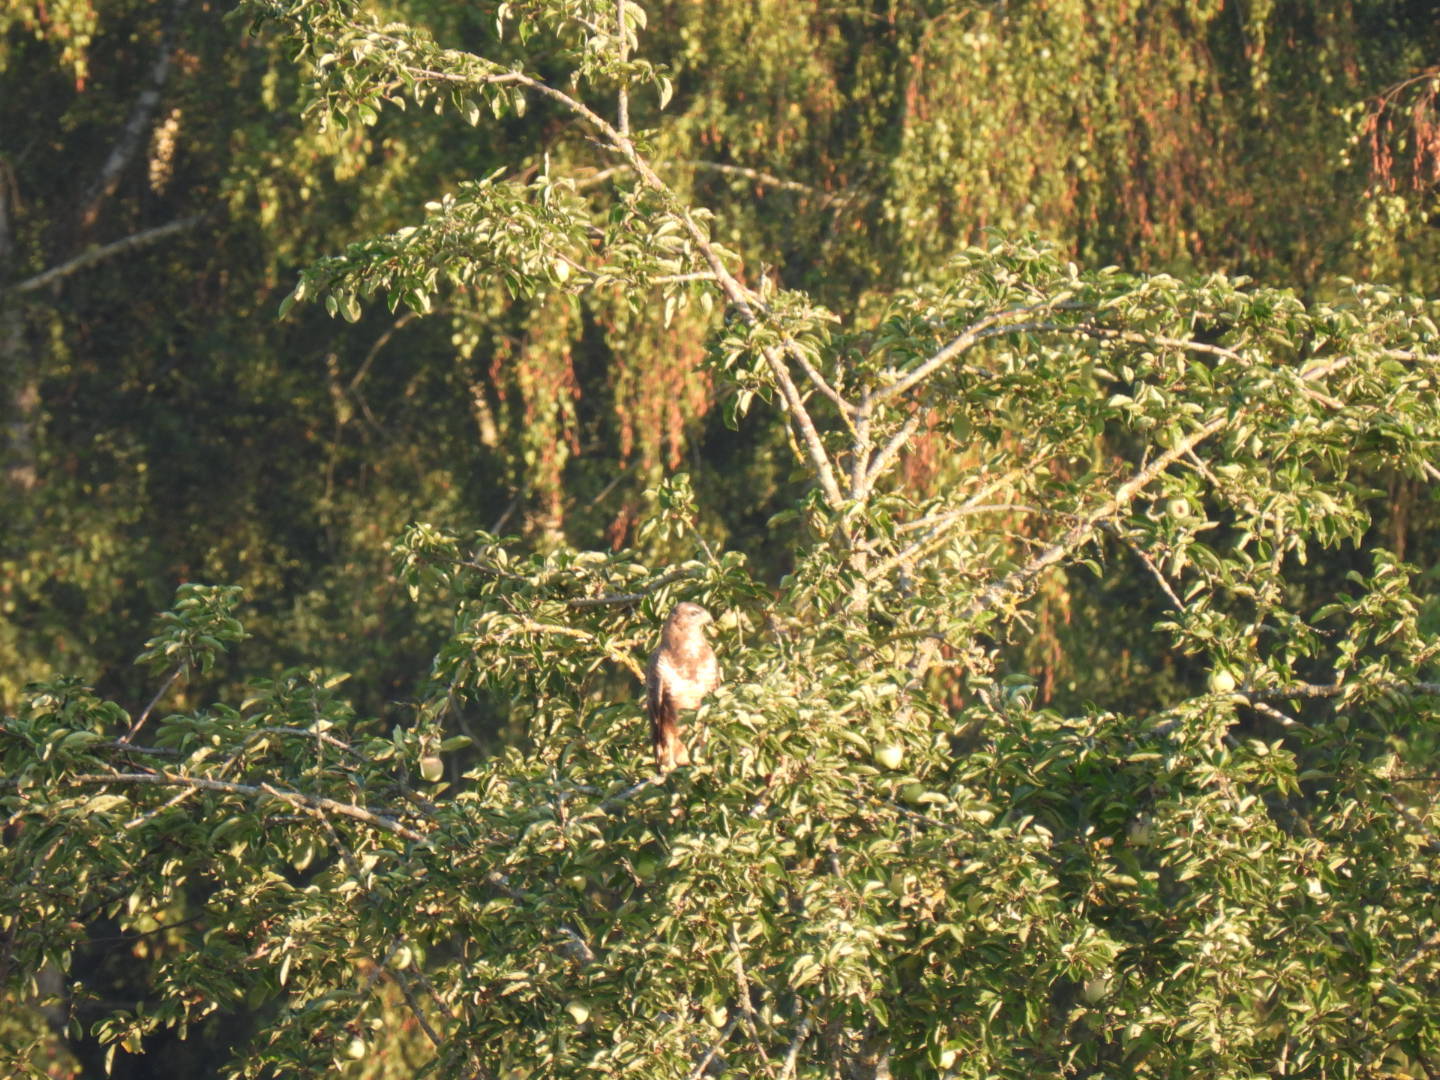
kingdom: Animalia
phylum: Chordata
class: Aves
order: Accipitriformes
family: Accipitridae
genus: Buteo
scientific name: Buteo buteo
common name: Common buzzard
